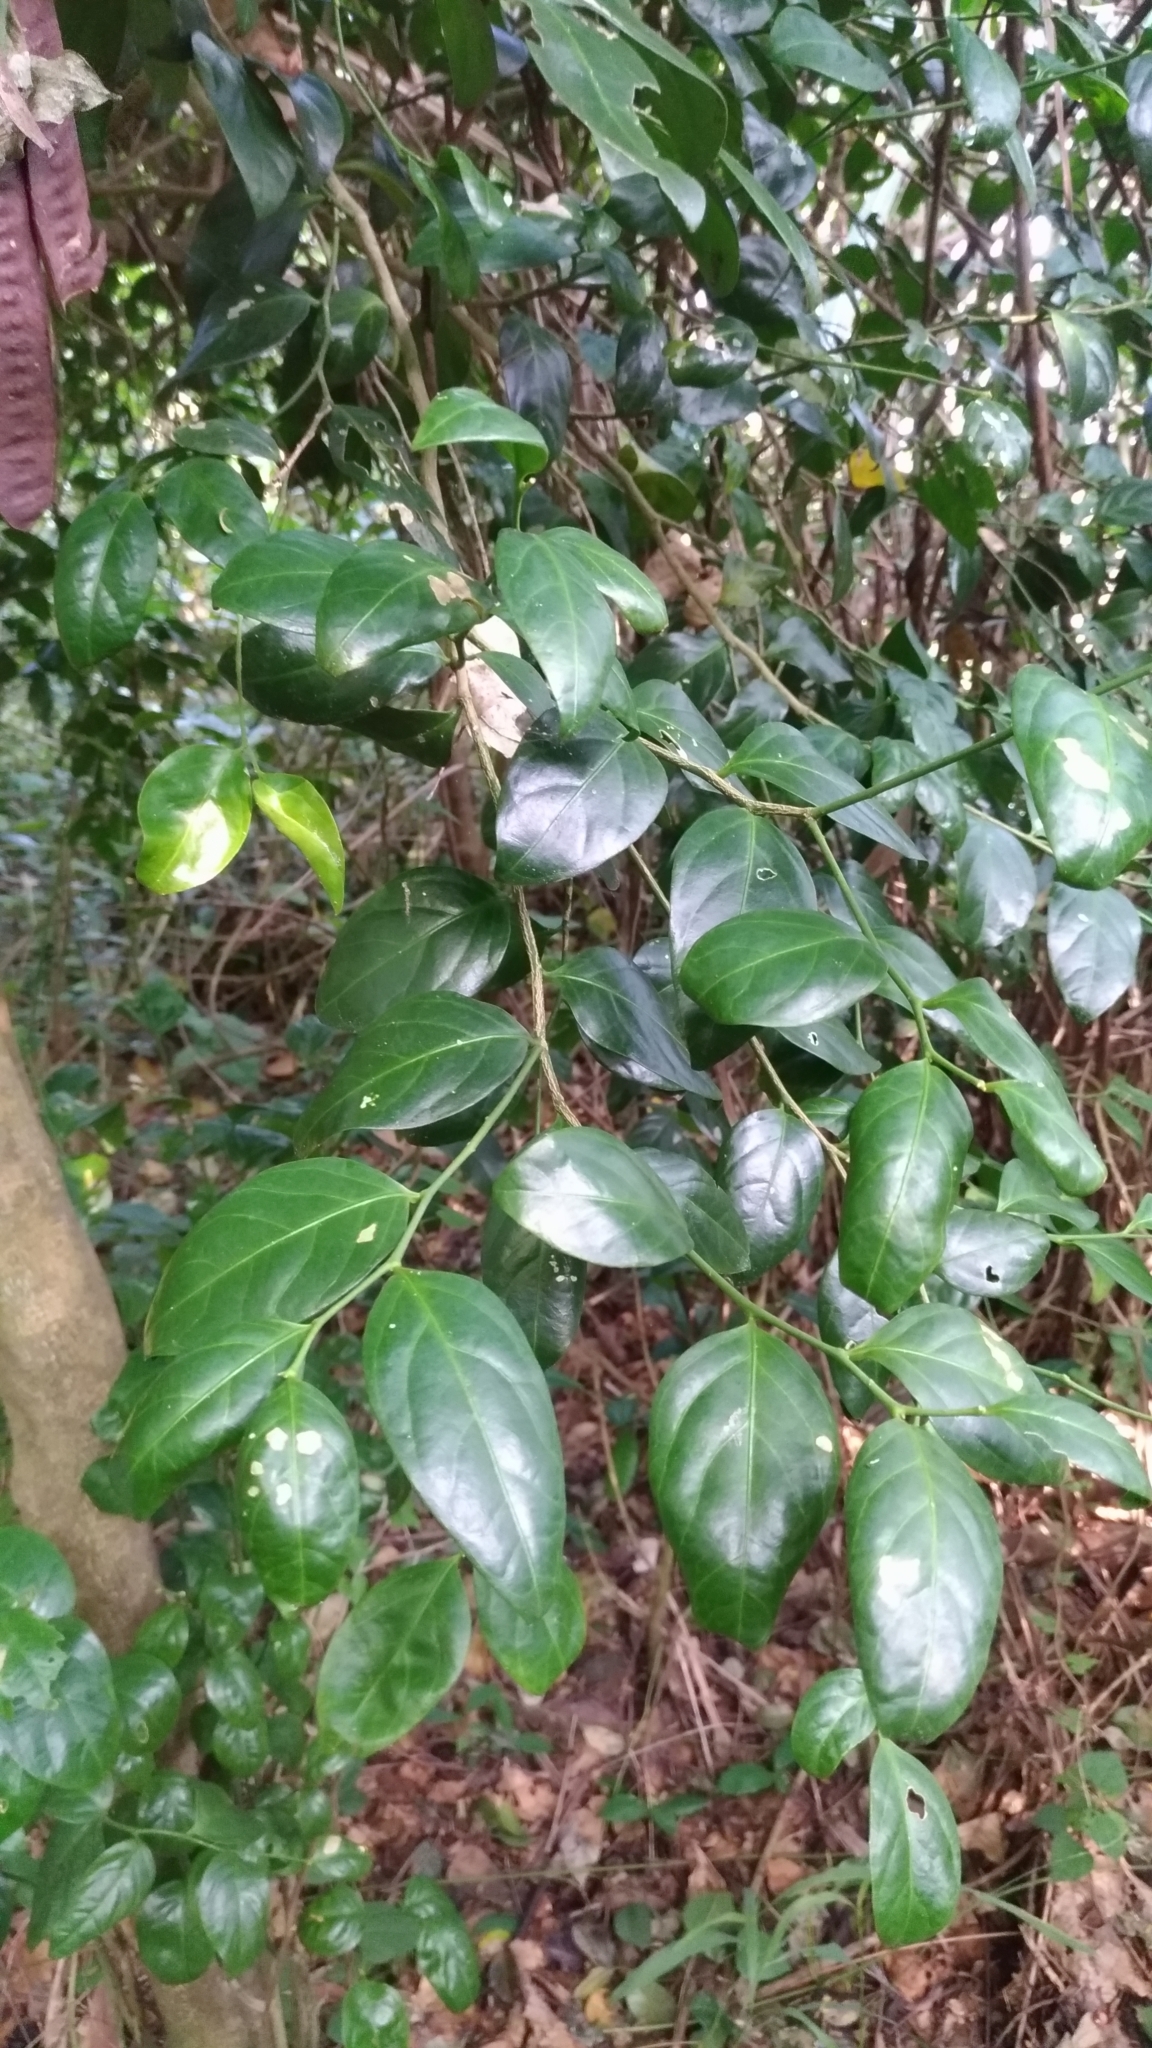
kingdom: Plantae
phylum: Tracheophyta
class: Magnoliopsida
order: Santalales
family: Opiliaceae
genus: Champereia
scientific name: Champereia manillana
